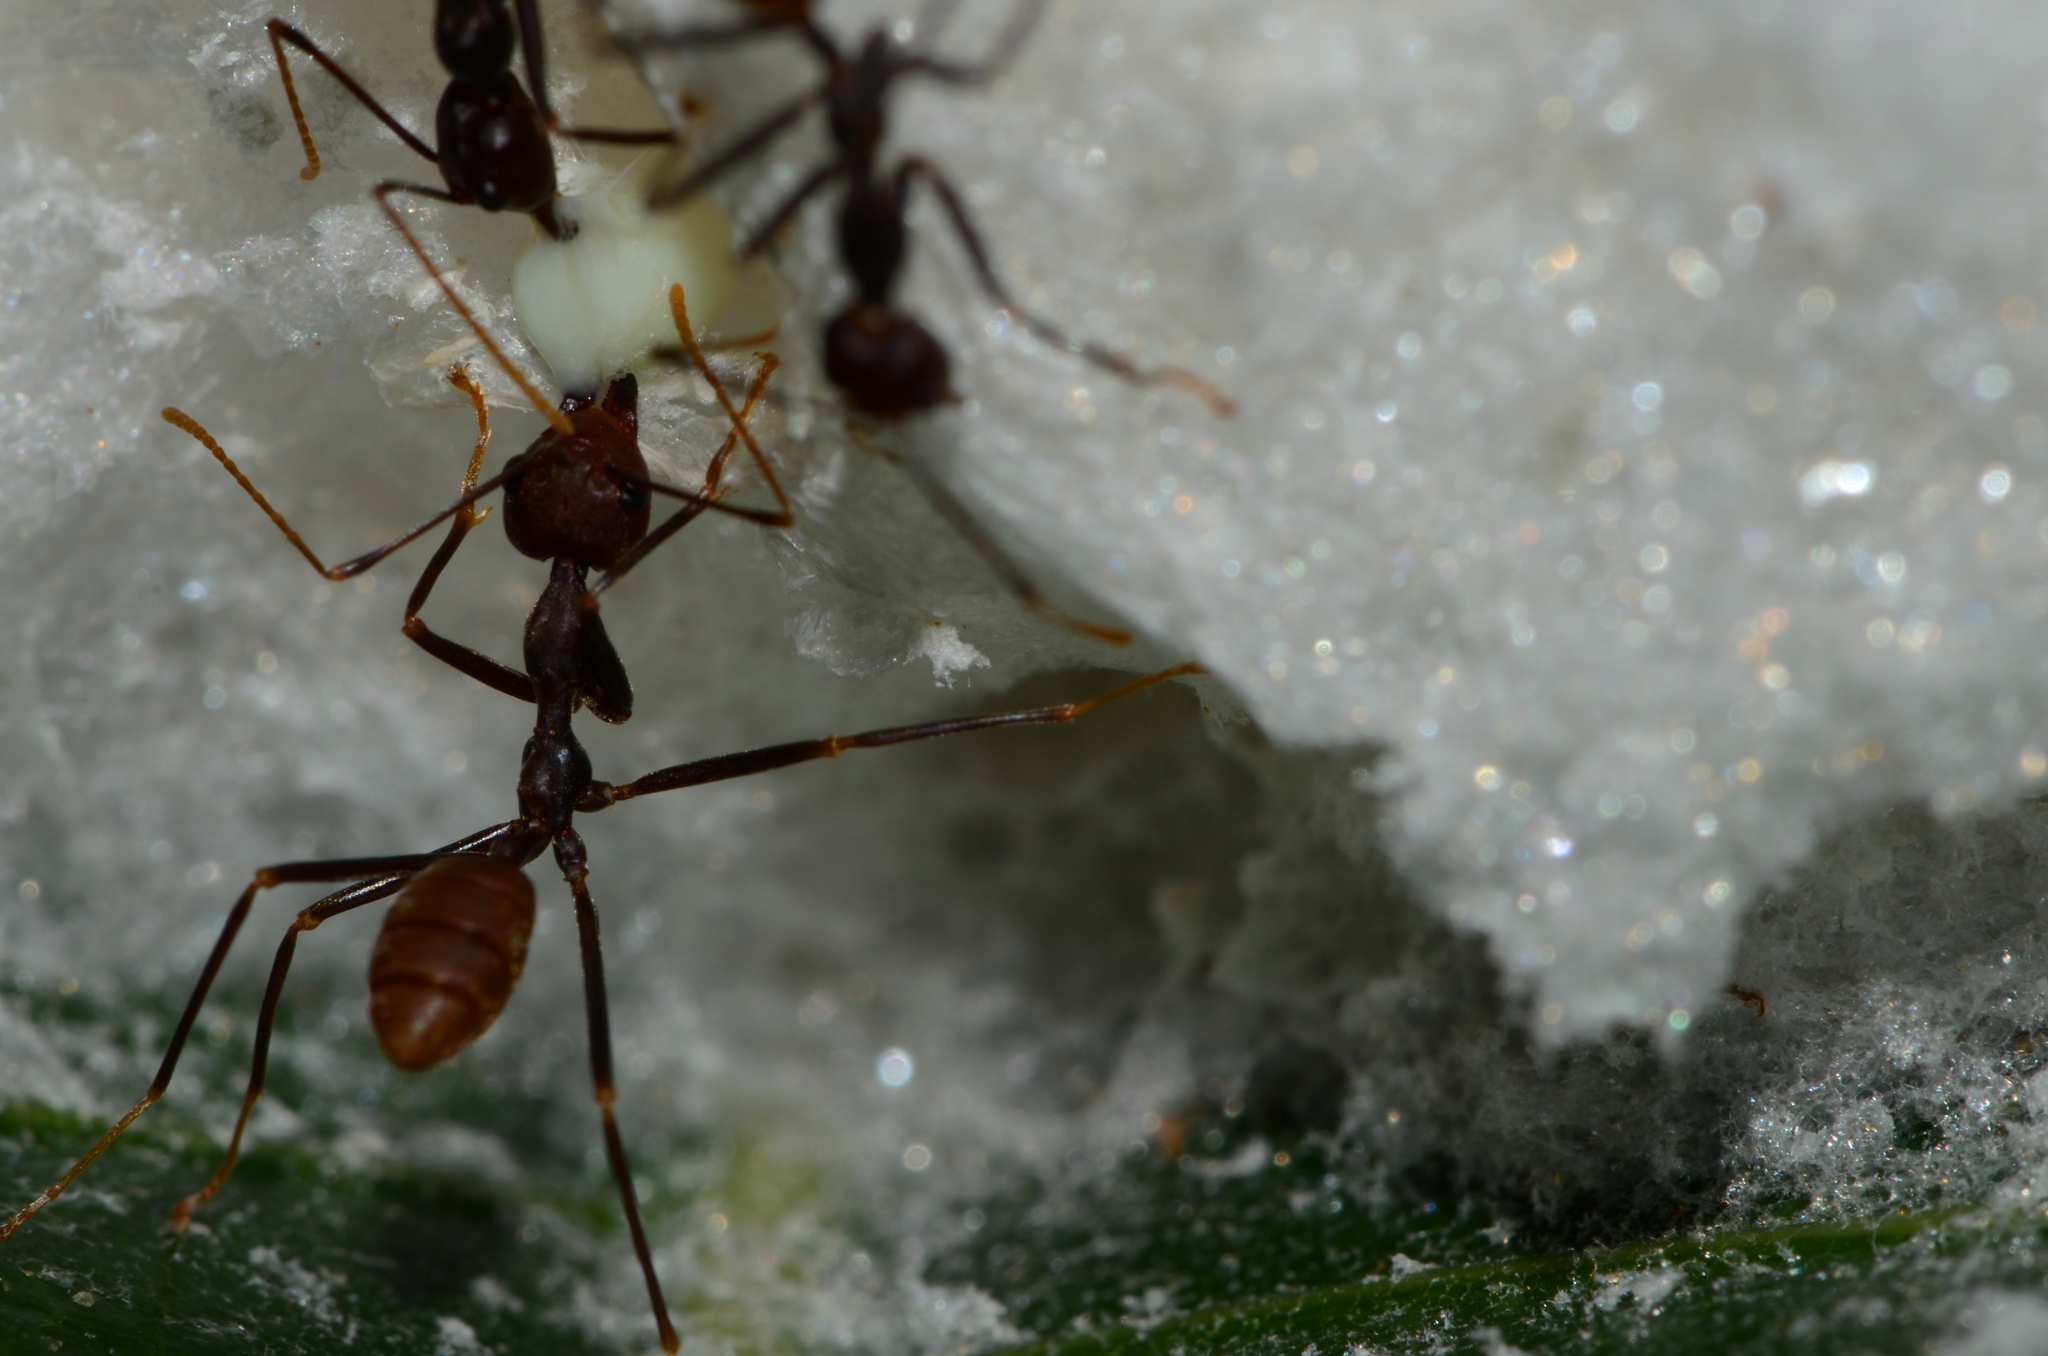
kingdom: Animalia
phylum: Arthropoda
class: Insecta
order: Hymenoptera
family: Formicidae
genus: Oecophylla
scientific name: Oecophylla longinoda
